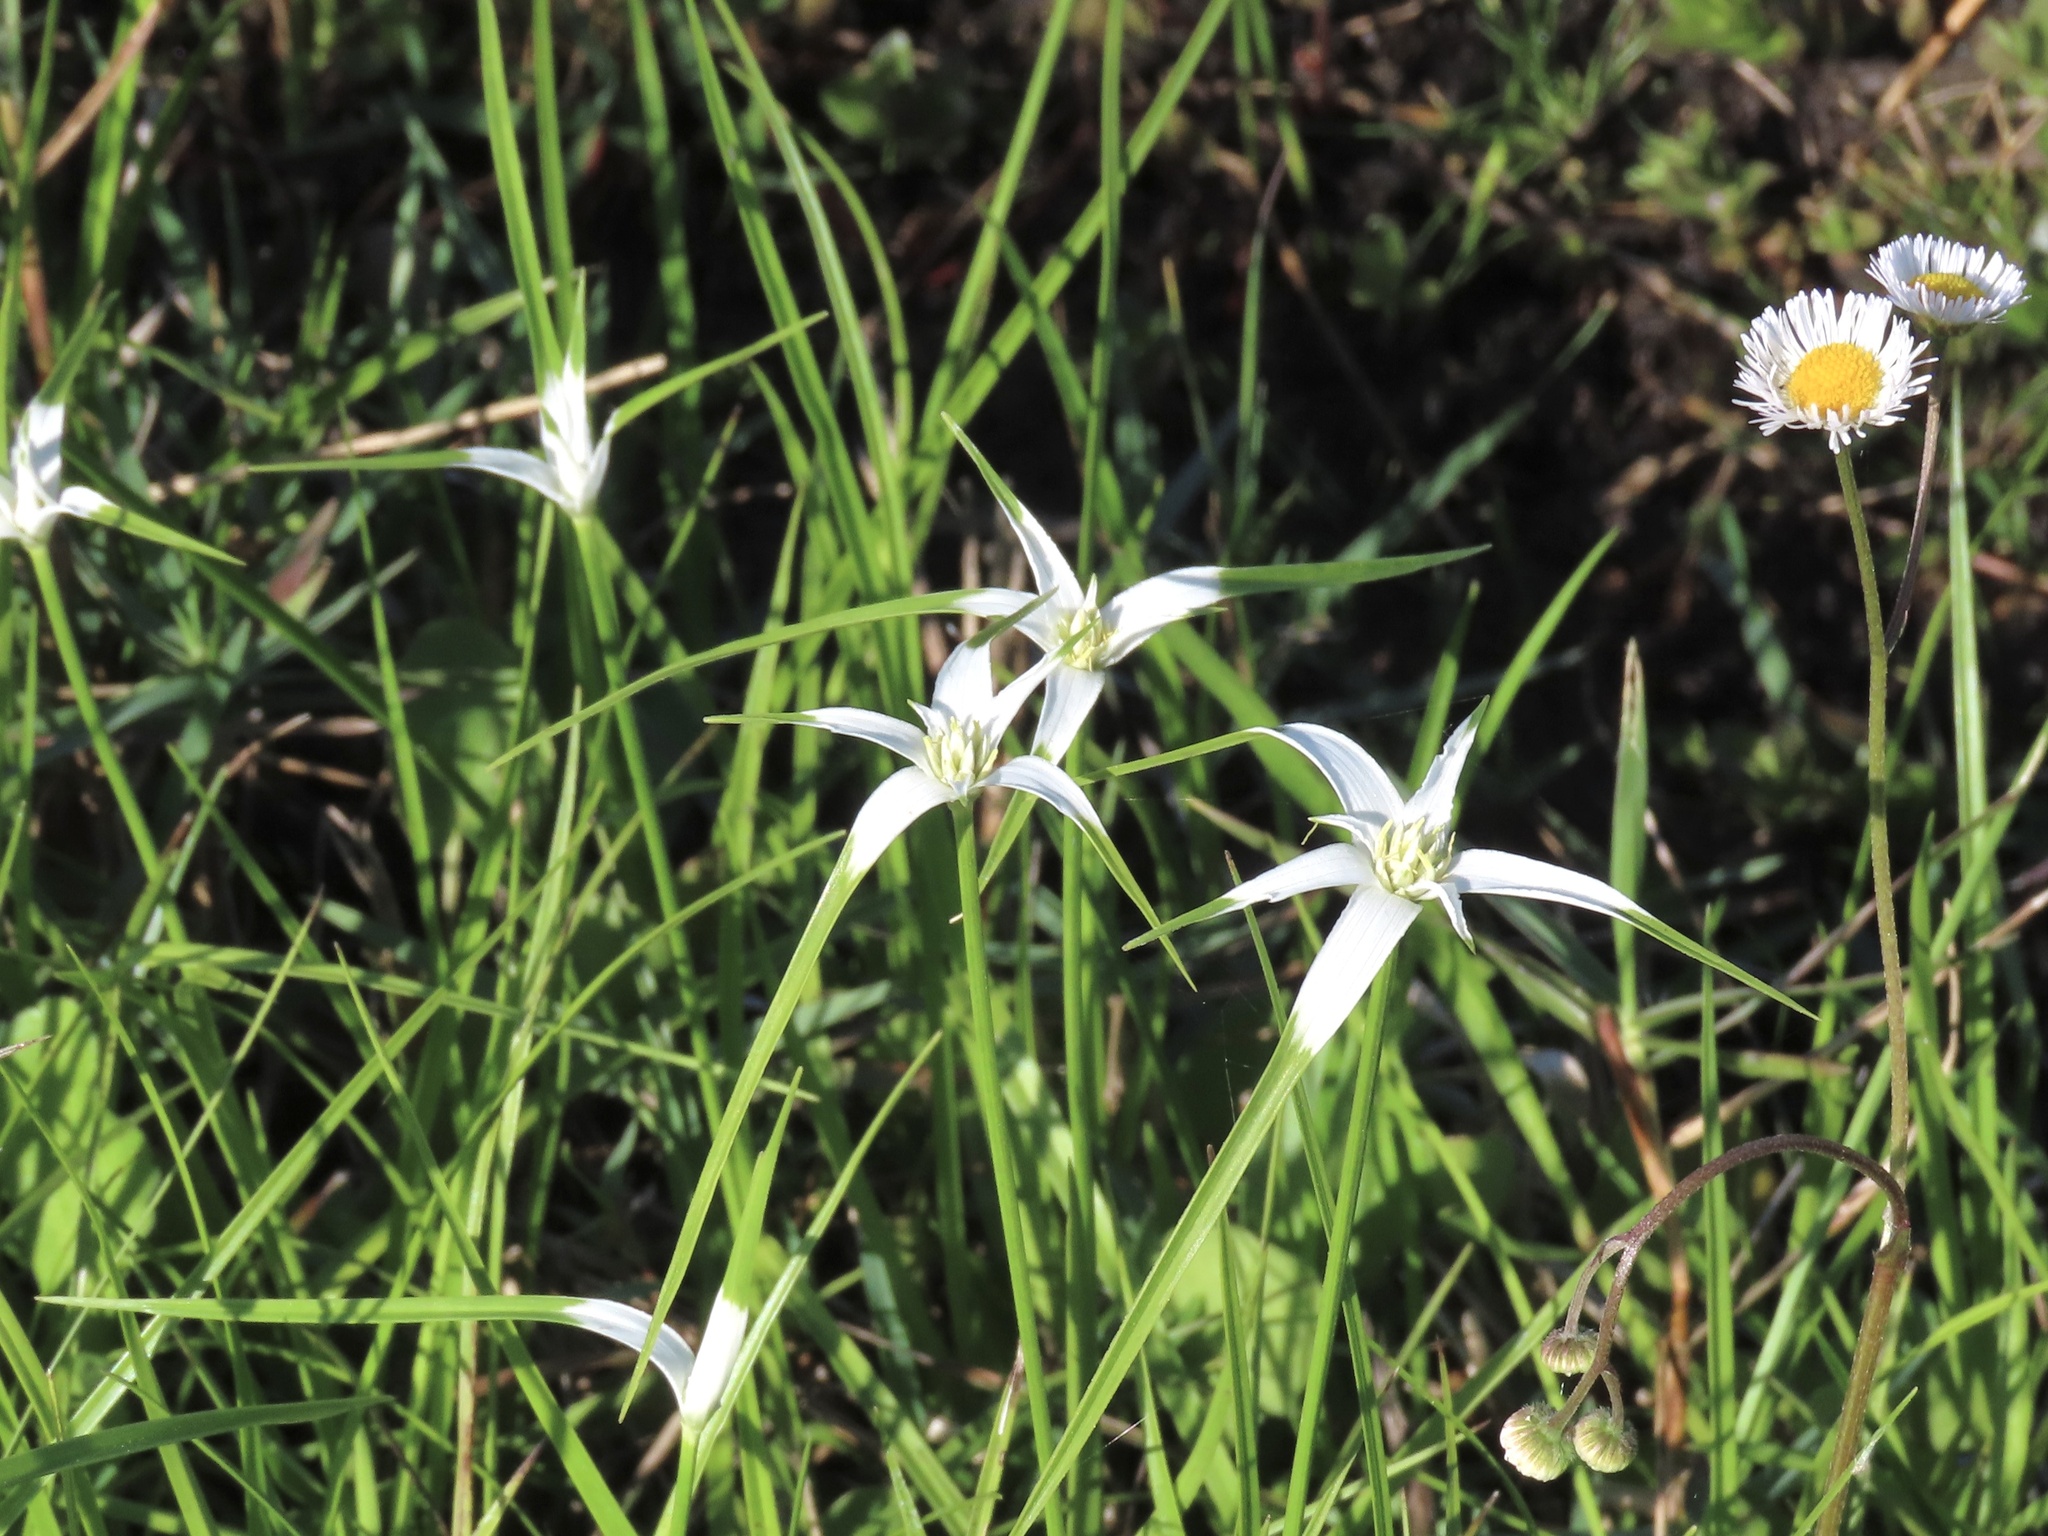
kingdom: Plantae
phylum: Tracheophyta
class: Liliopsida
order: Poales
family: Cyperaceae
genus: Rhynchospora
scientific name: Rhynchospora colorata
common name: Star sedge
